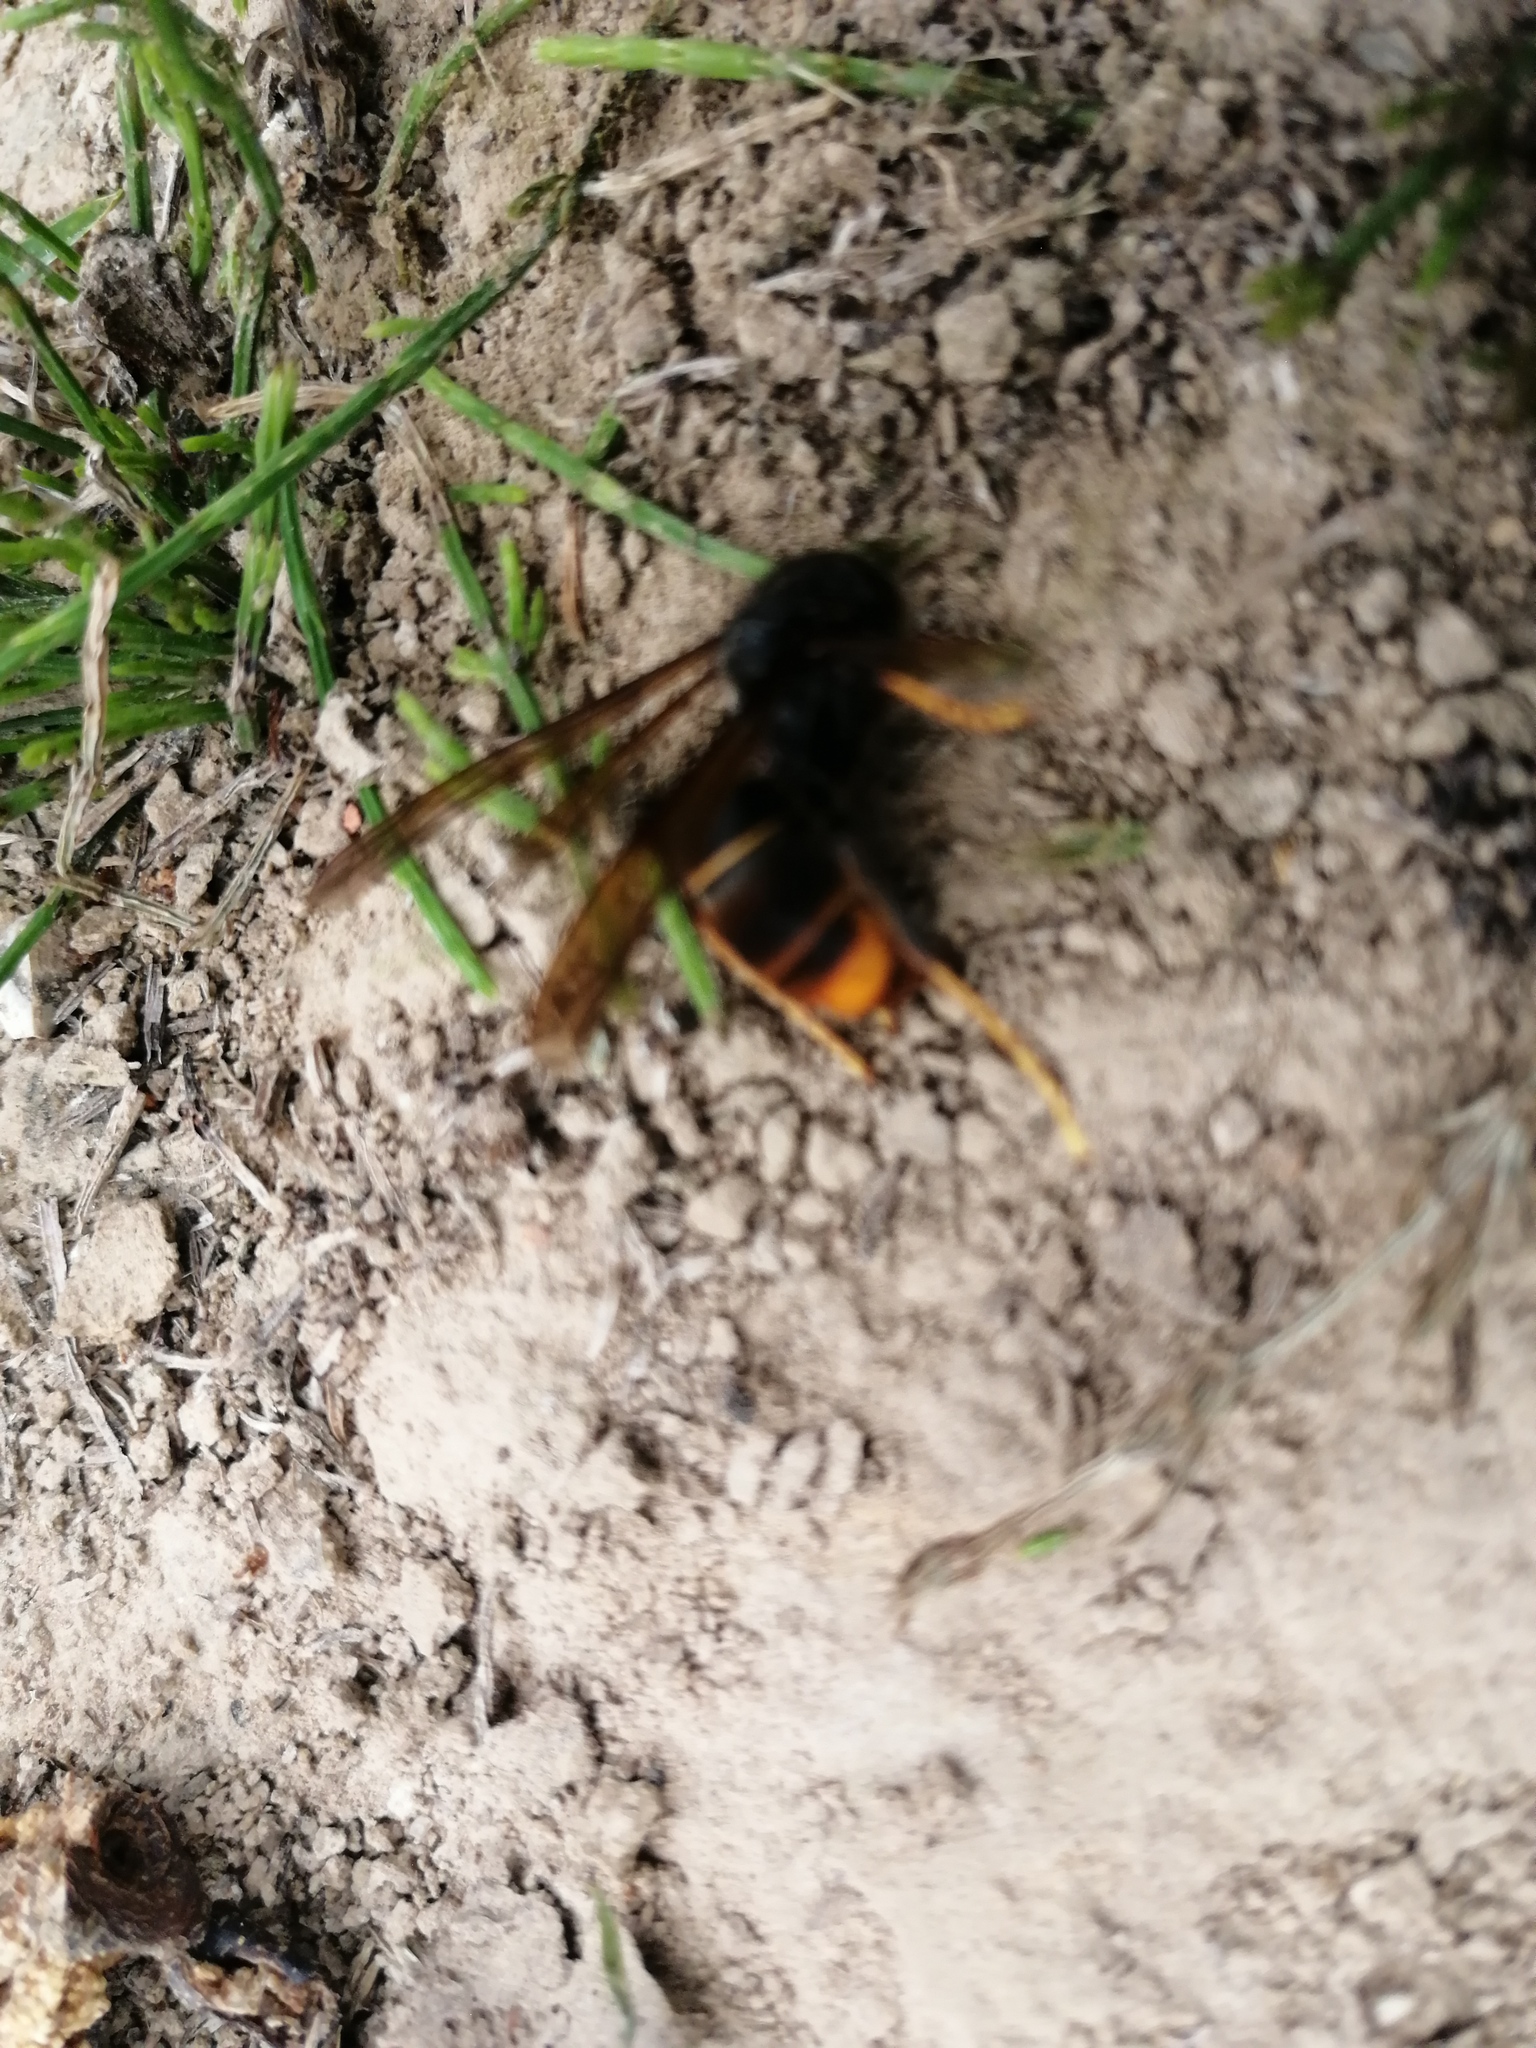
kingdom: Animalia
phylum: Arthropoda
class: Insecta
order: Hymenoptera
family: Vespidae
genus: Vespa
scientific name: Vespa velutina
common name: Asian hornet
